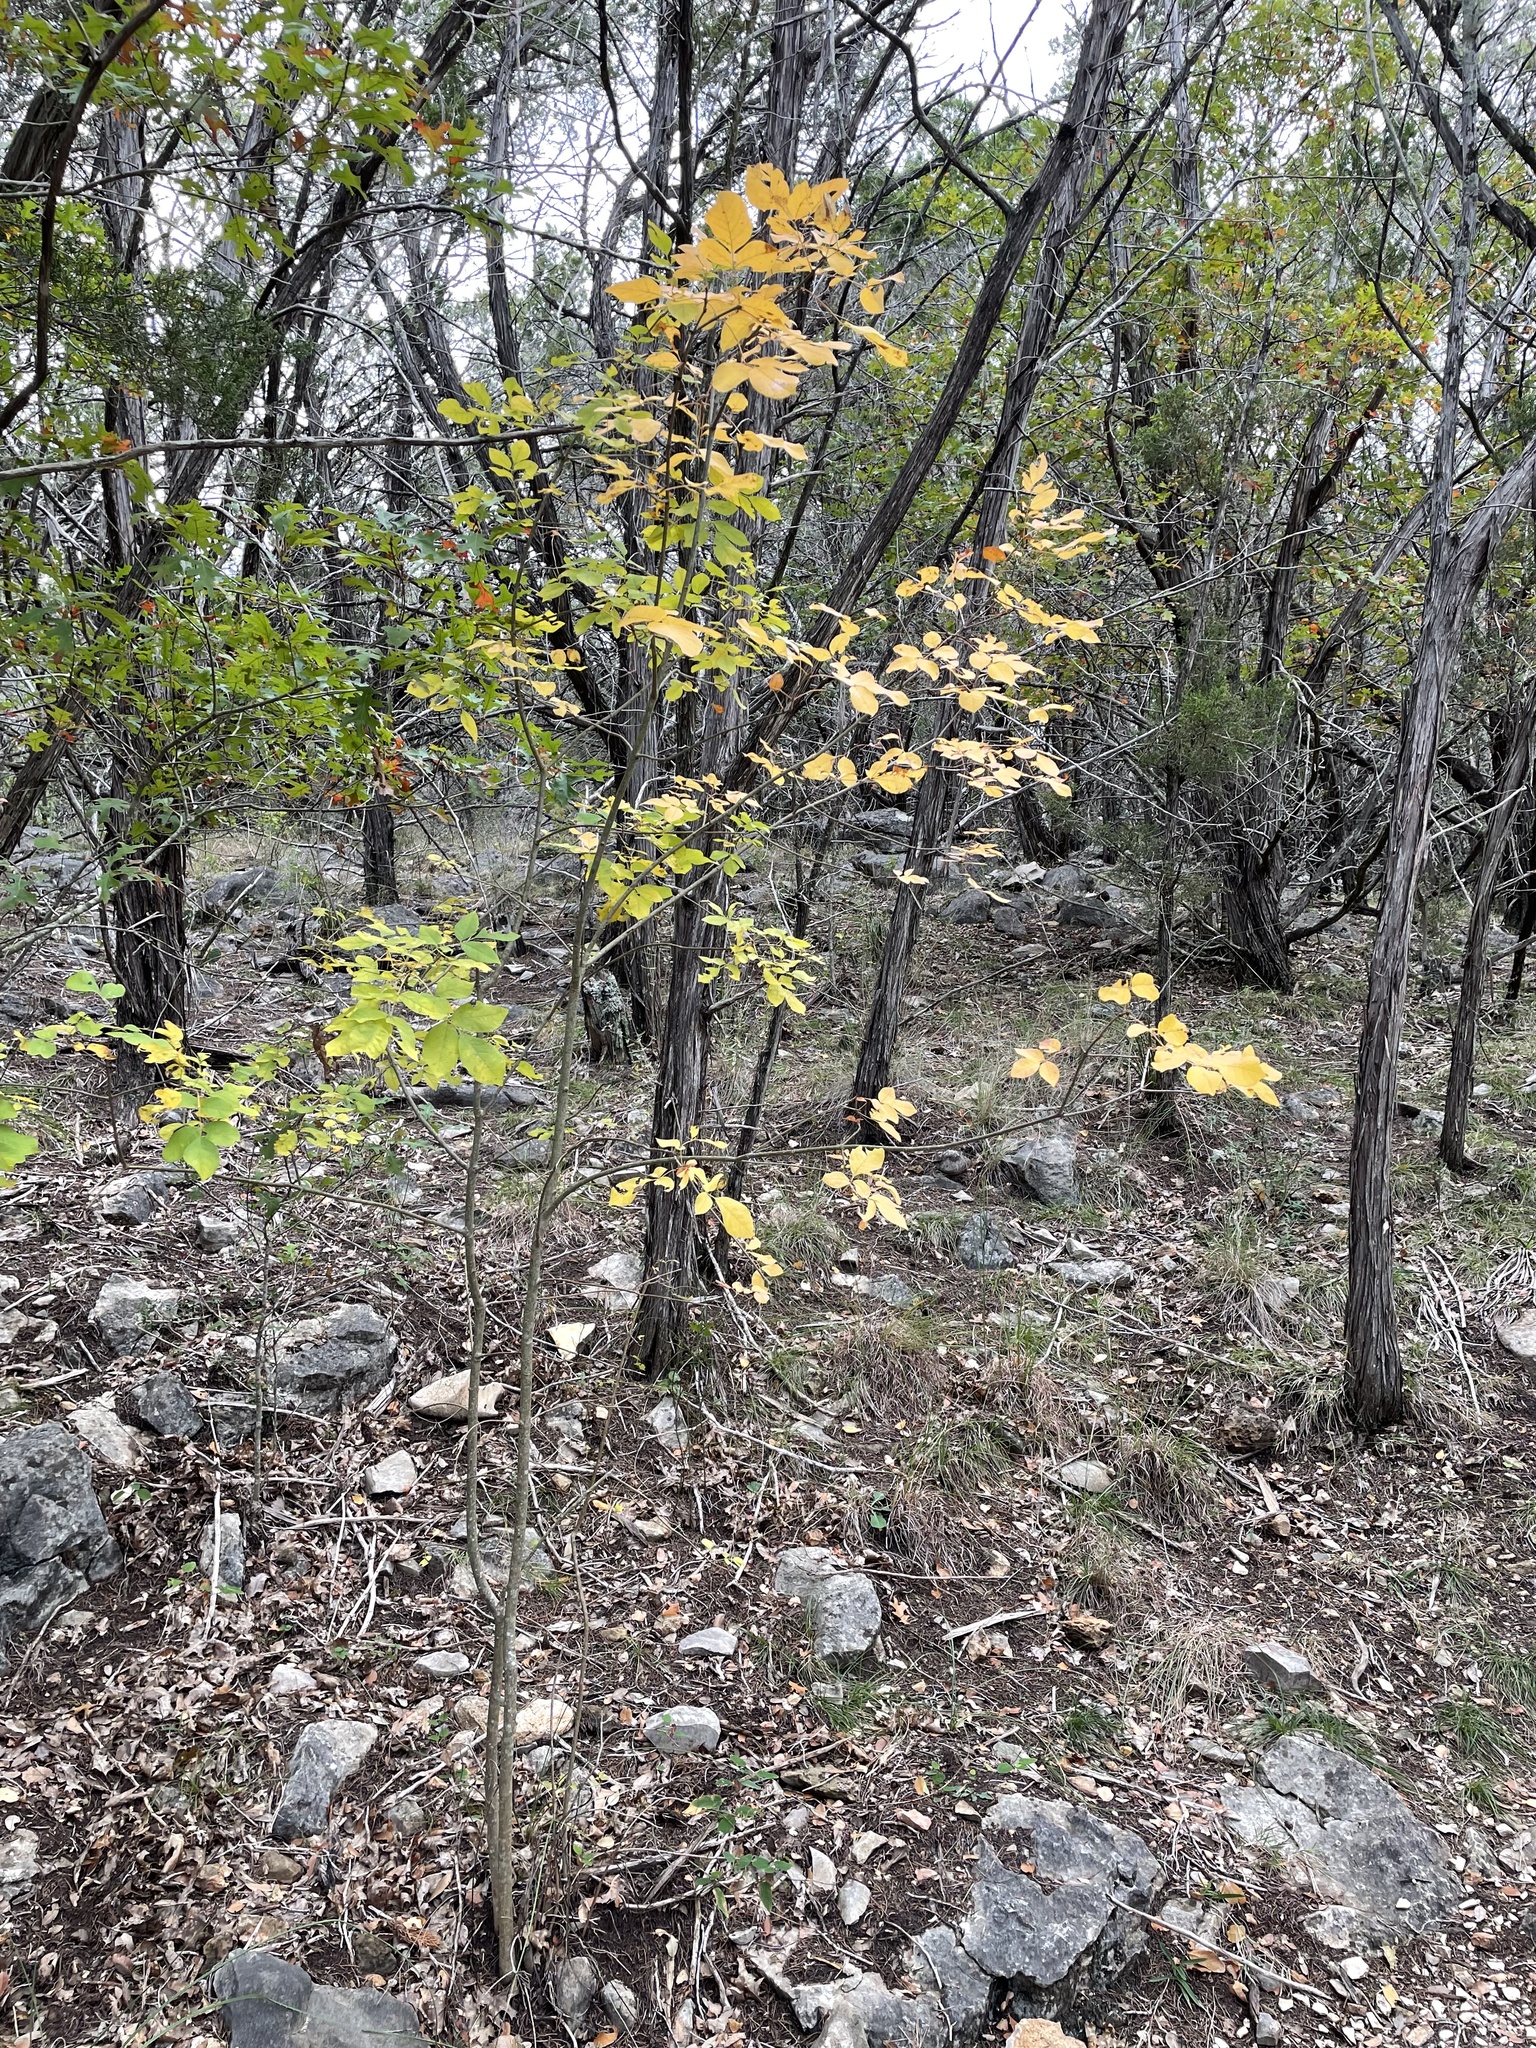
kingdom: Plantae
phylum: Tracheophyta
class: Magnoliopsida
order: Lamiales
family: Oleaceae
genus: Fraxinus
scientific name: Fraxinus albicans
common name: Texas ash
